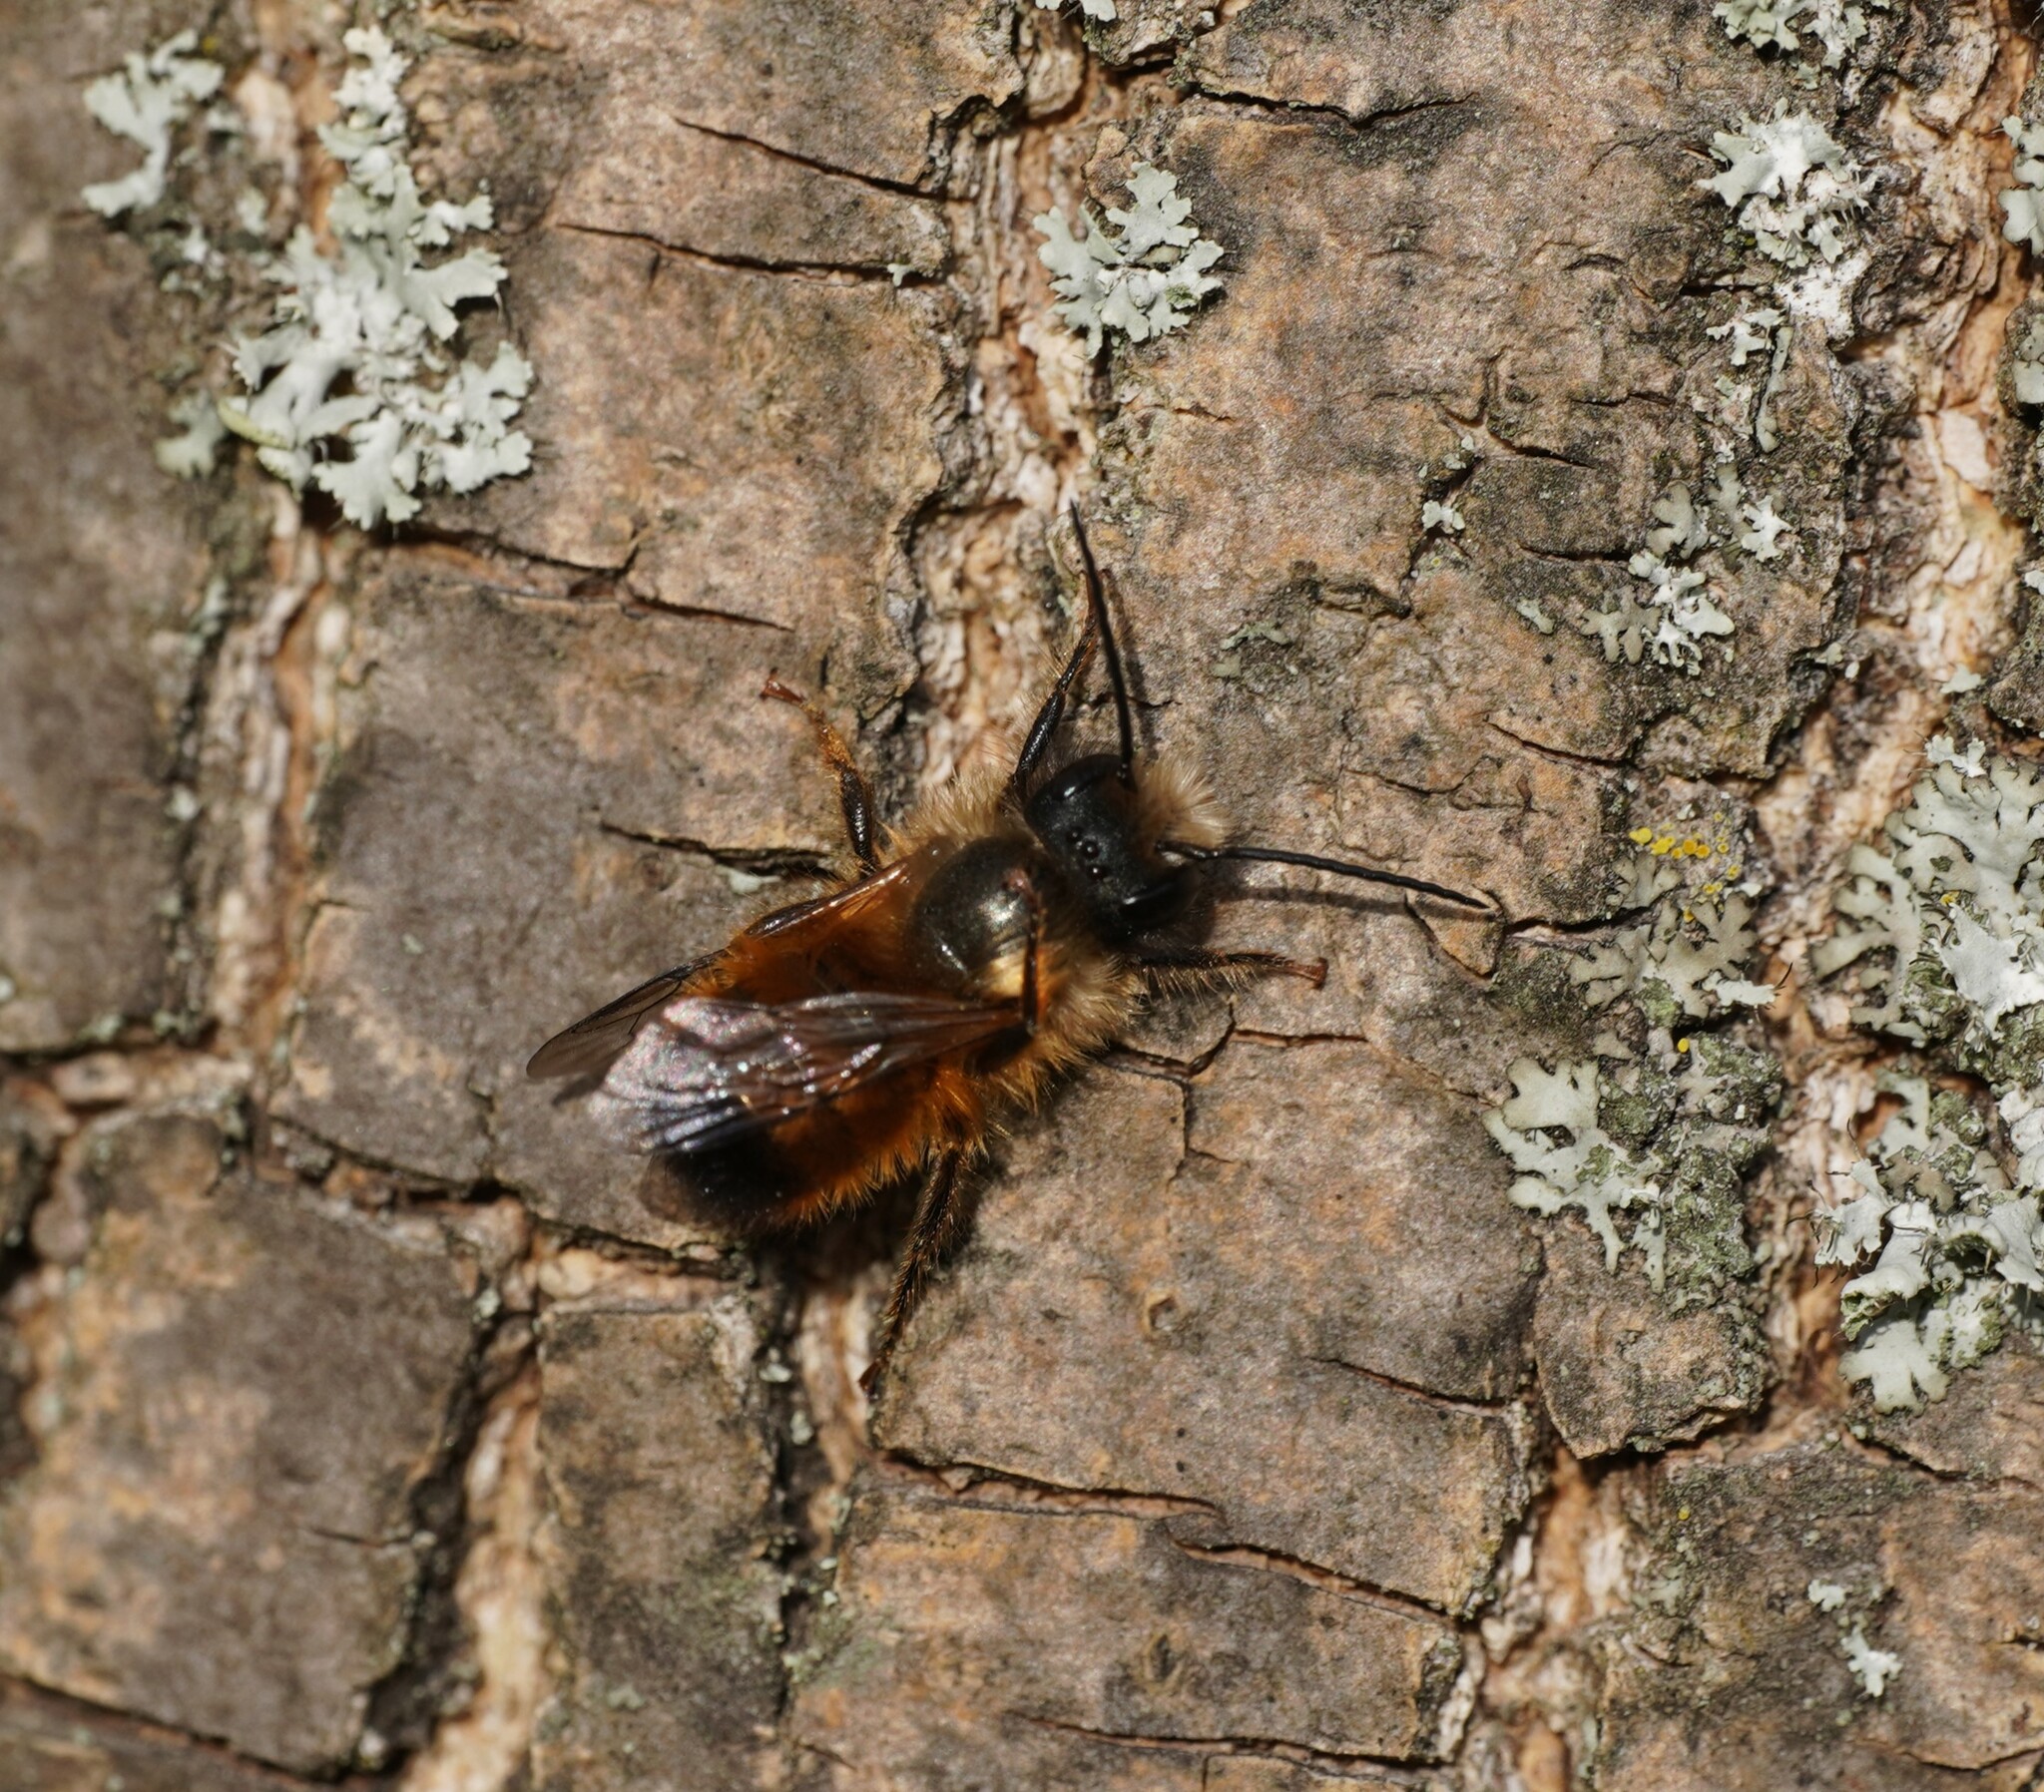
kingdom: Animalia
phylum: Arthropoda
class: Insecta
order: Hymenoptera
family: Megachilidae
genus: Osmia
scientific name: Osmia bicornis
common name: Red mason bee
